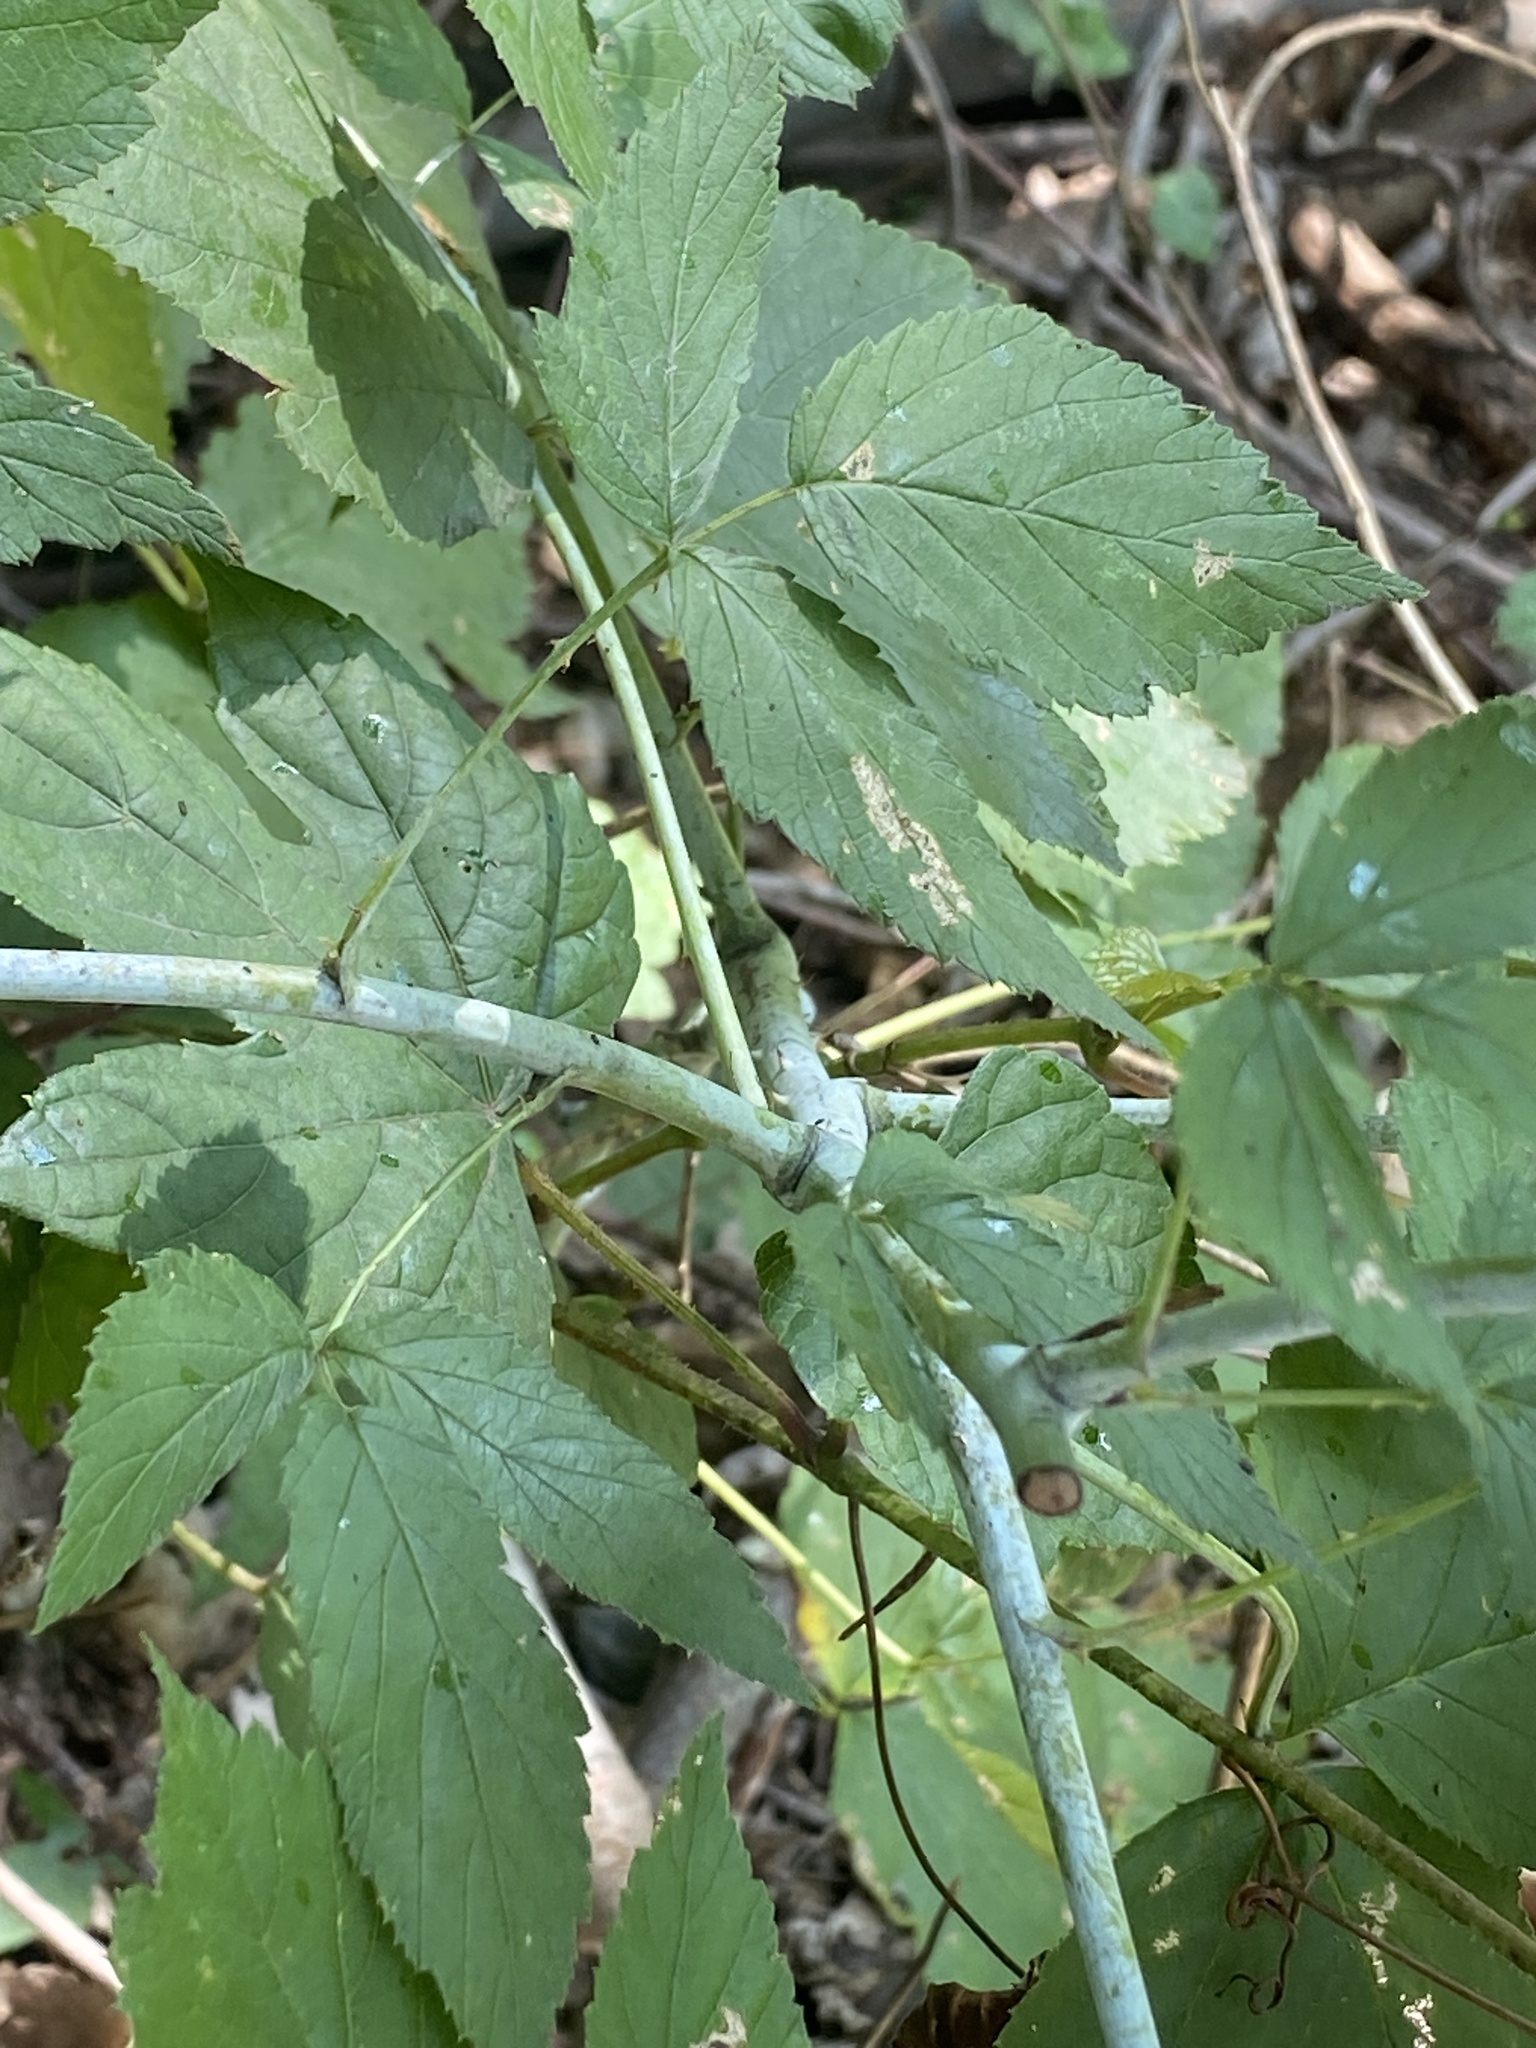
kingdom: Plantae
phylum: Tracheophyta
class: Magnoliopsida
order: Rosales
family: Rosaceae
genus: Rubus
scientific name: Rubus occidentalis
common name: Black raspberry
